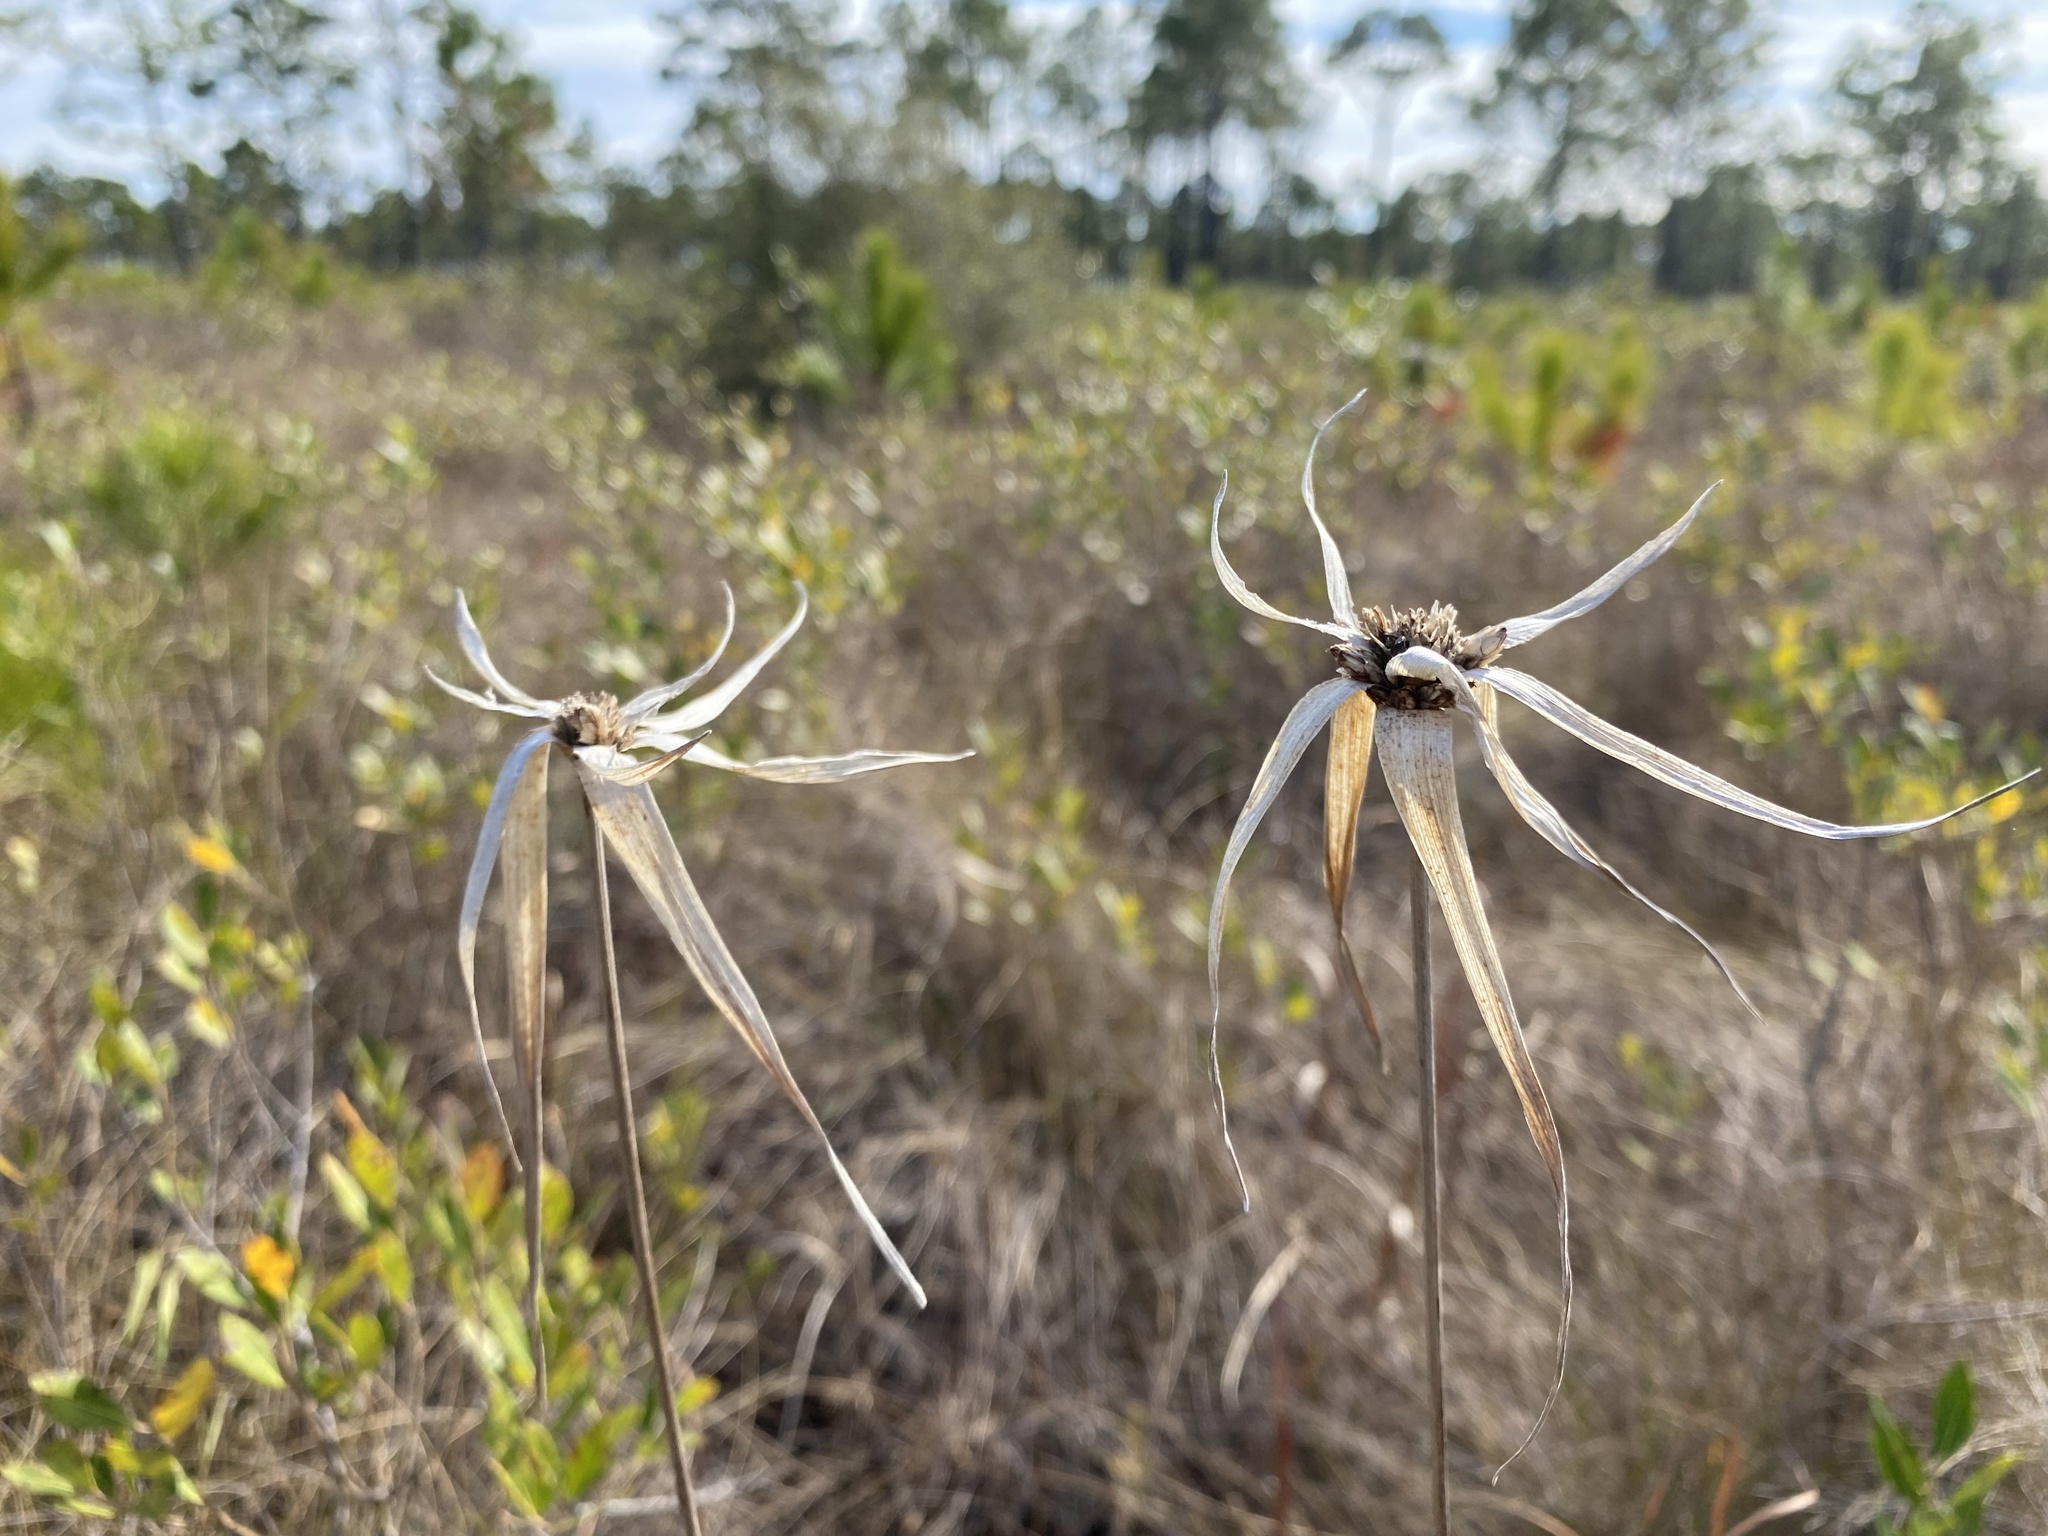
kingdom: Plantae
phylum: Tracheophyta
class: Liliopsida
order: Poales
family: Cyperaceae
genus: Rhynchospora
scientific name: Rhynchospora latifolia
